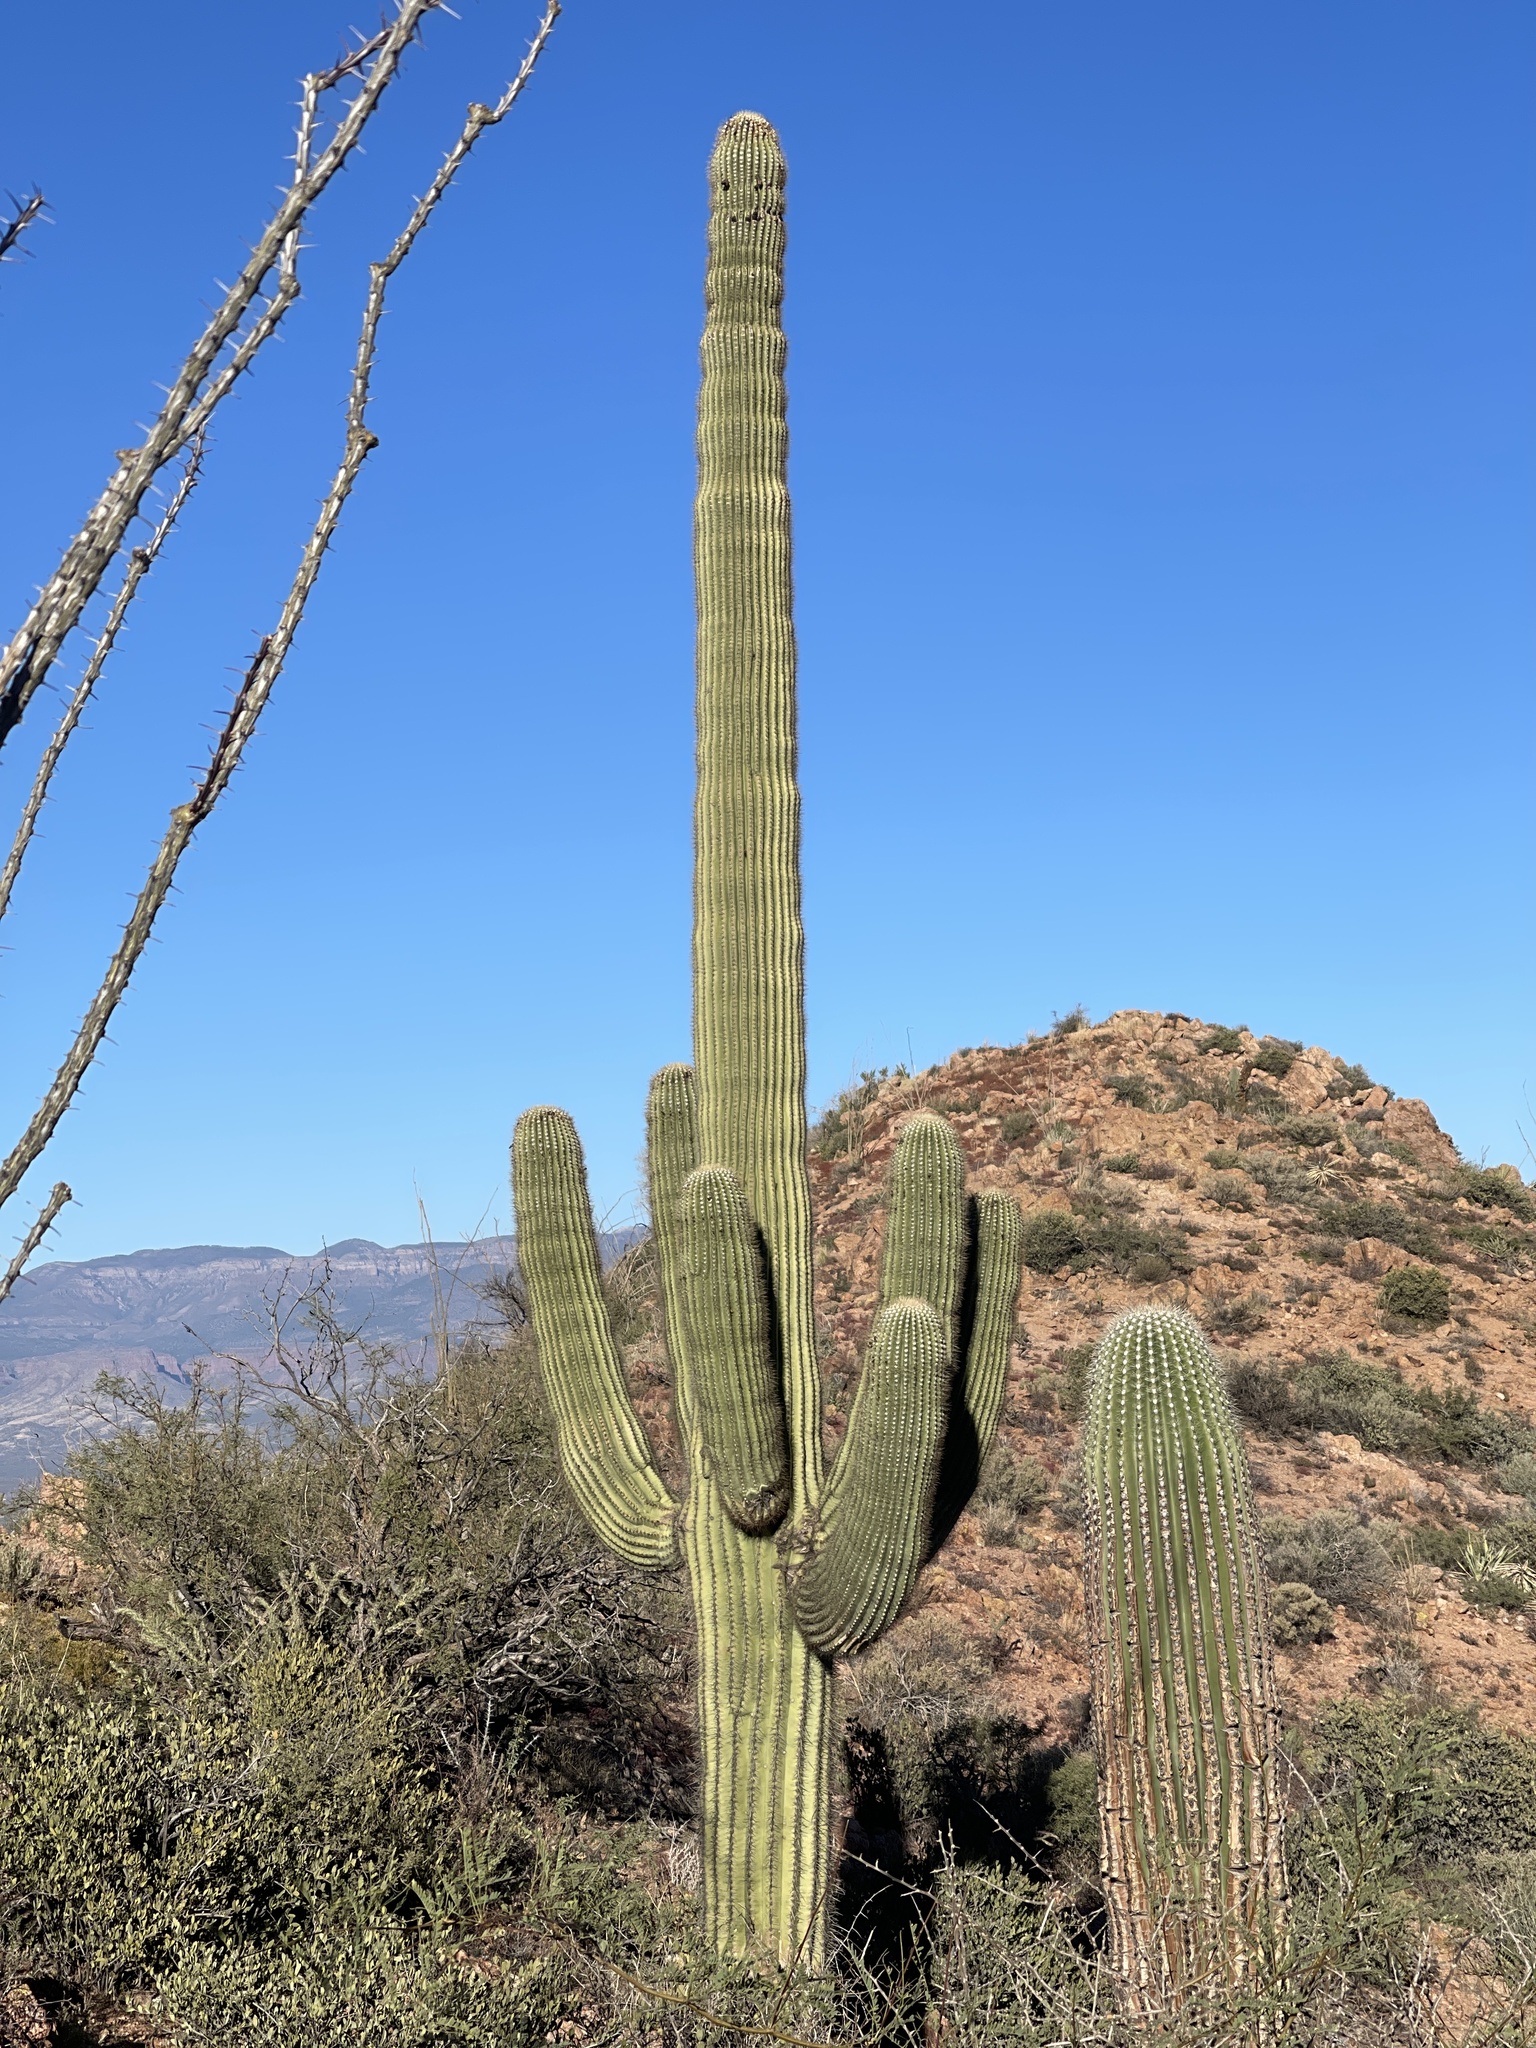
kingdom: Plantae
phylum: Tracheophyta
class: Magnoliopsida
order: Caryophyllales
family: Cactaceae
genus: Carnegiea
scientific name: Carnegiea gigantea
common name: Saguaro
